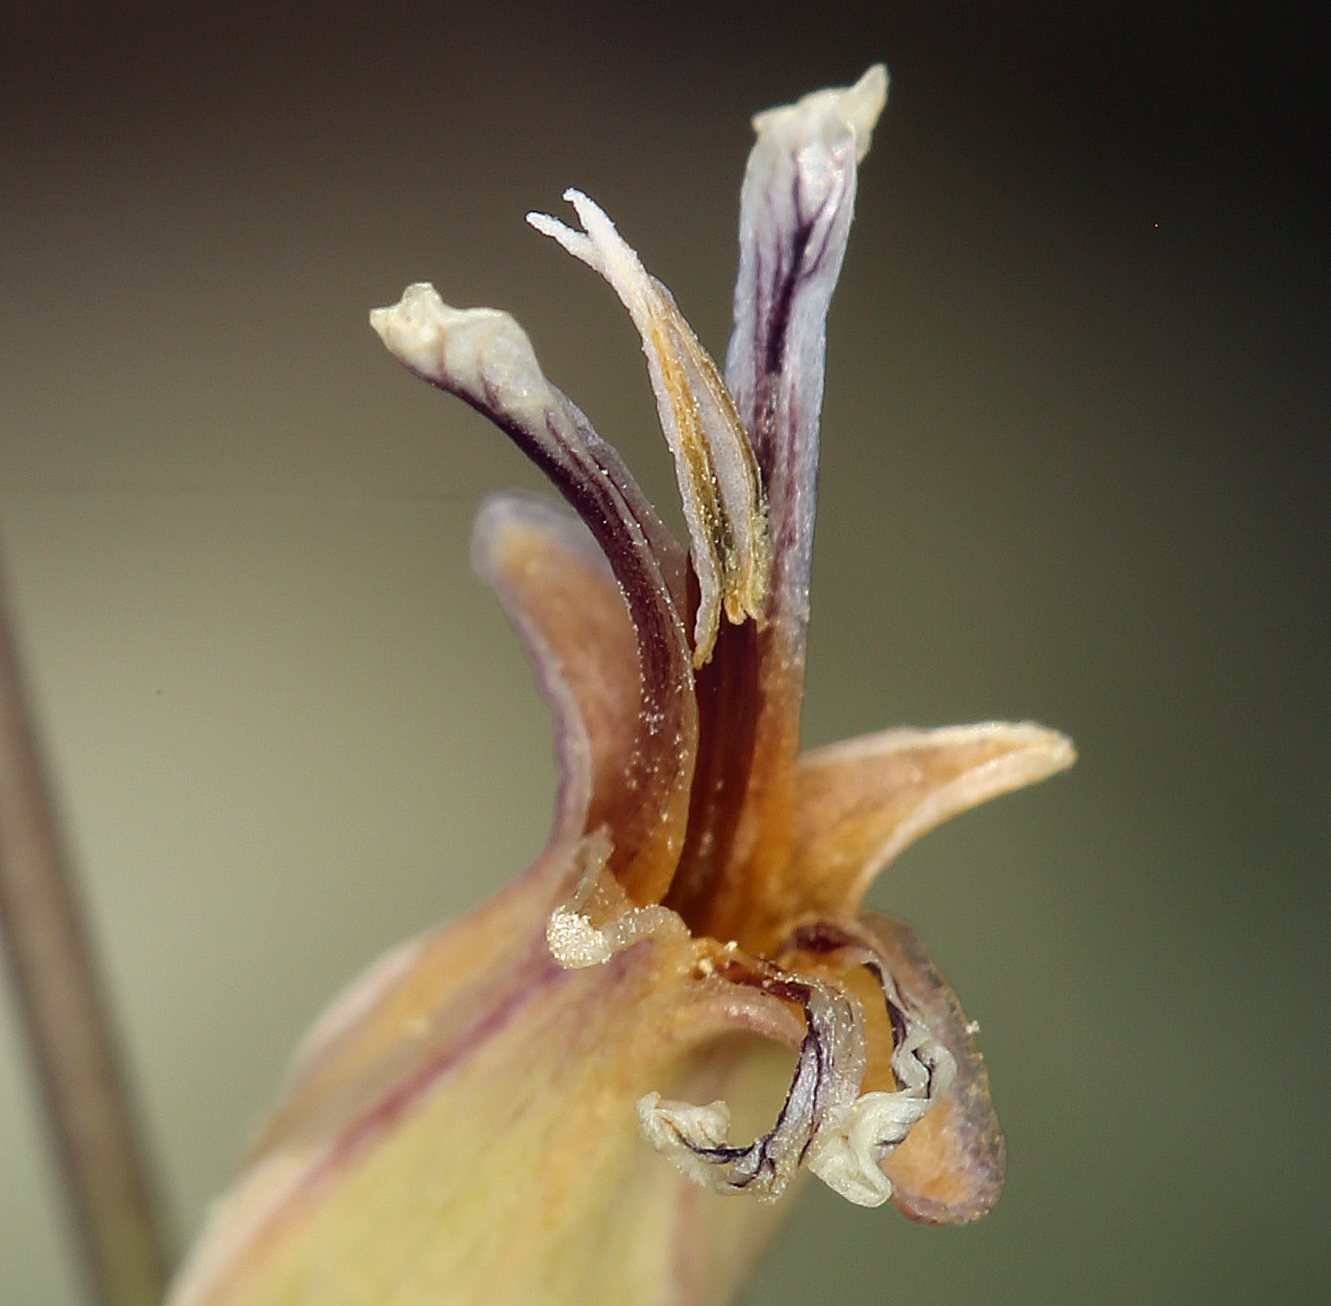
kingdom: Plantae
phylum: Tracheophyta
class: Magnoliopsida
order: Brassicales
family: Brassicaceae
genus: Streptanthus
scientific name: Streptanthus tortuosus
